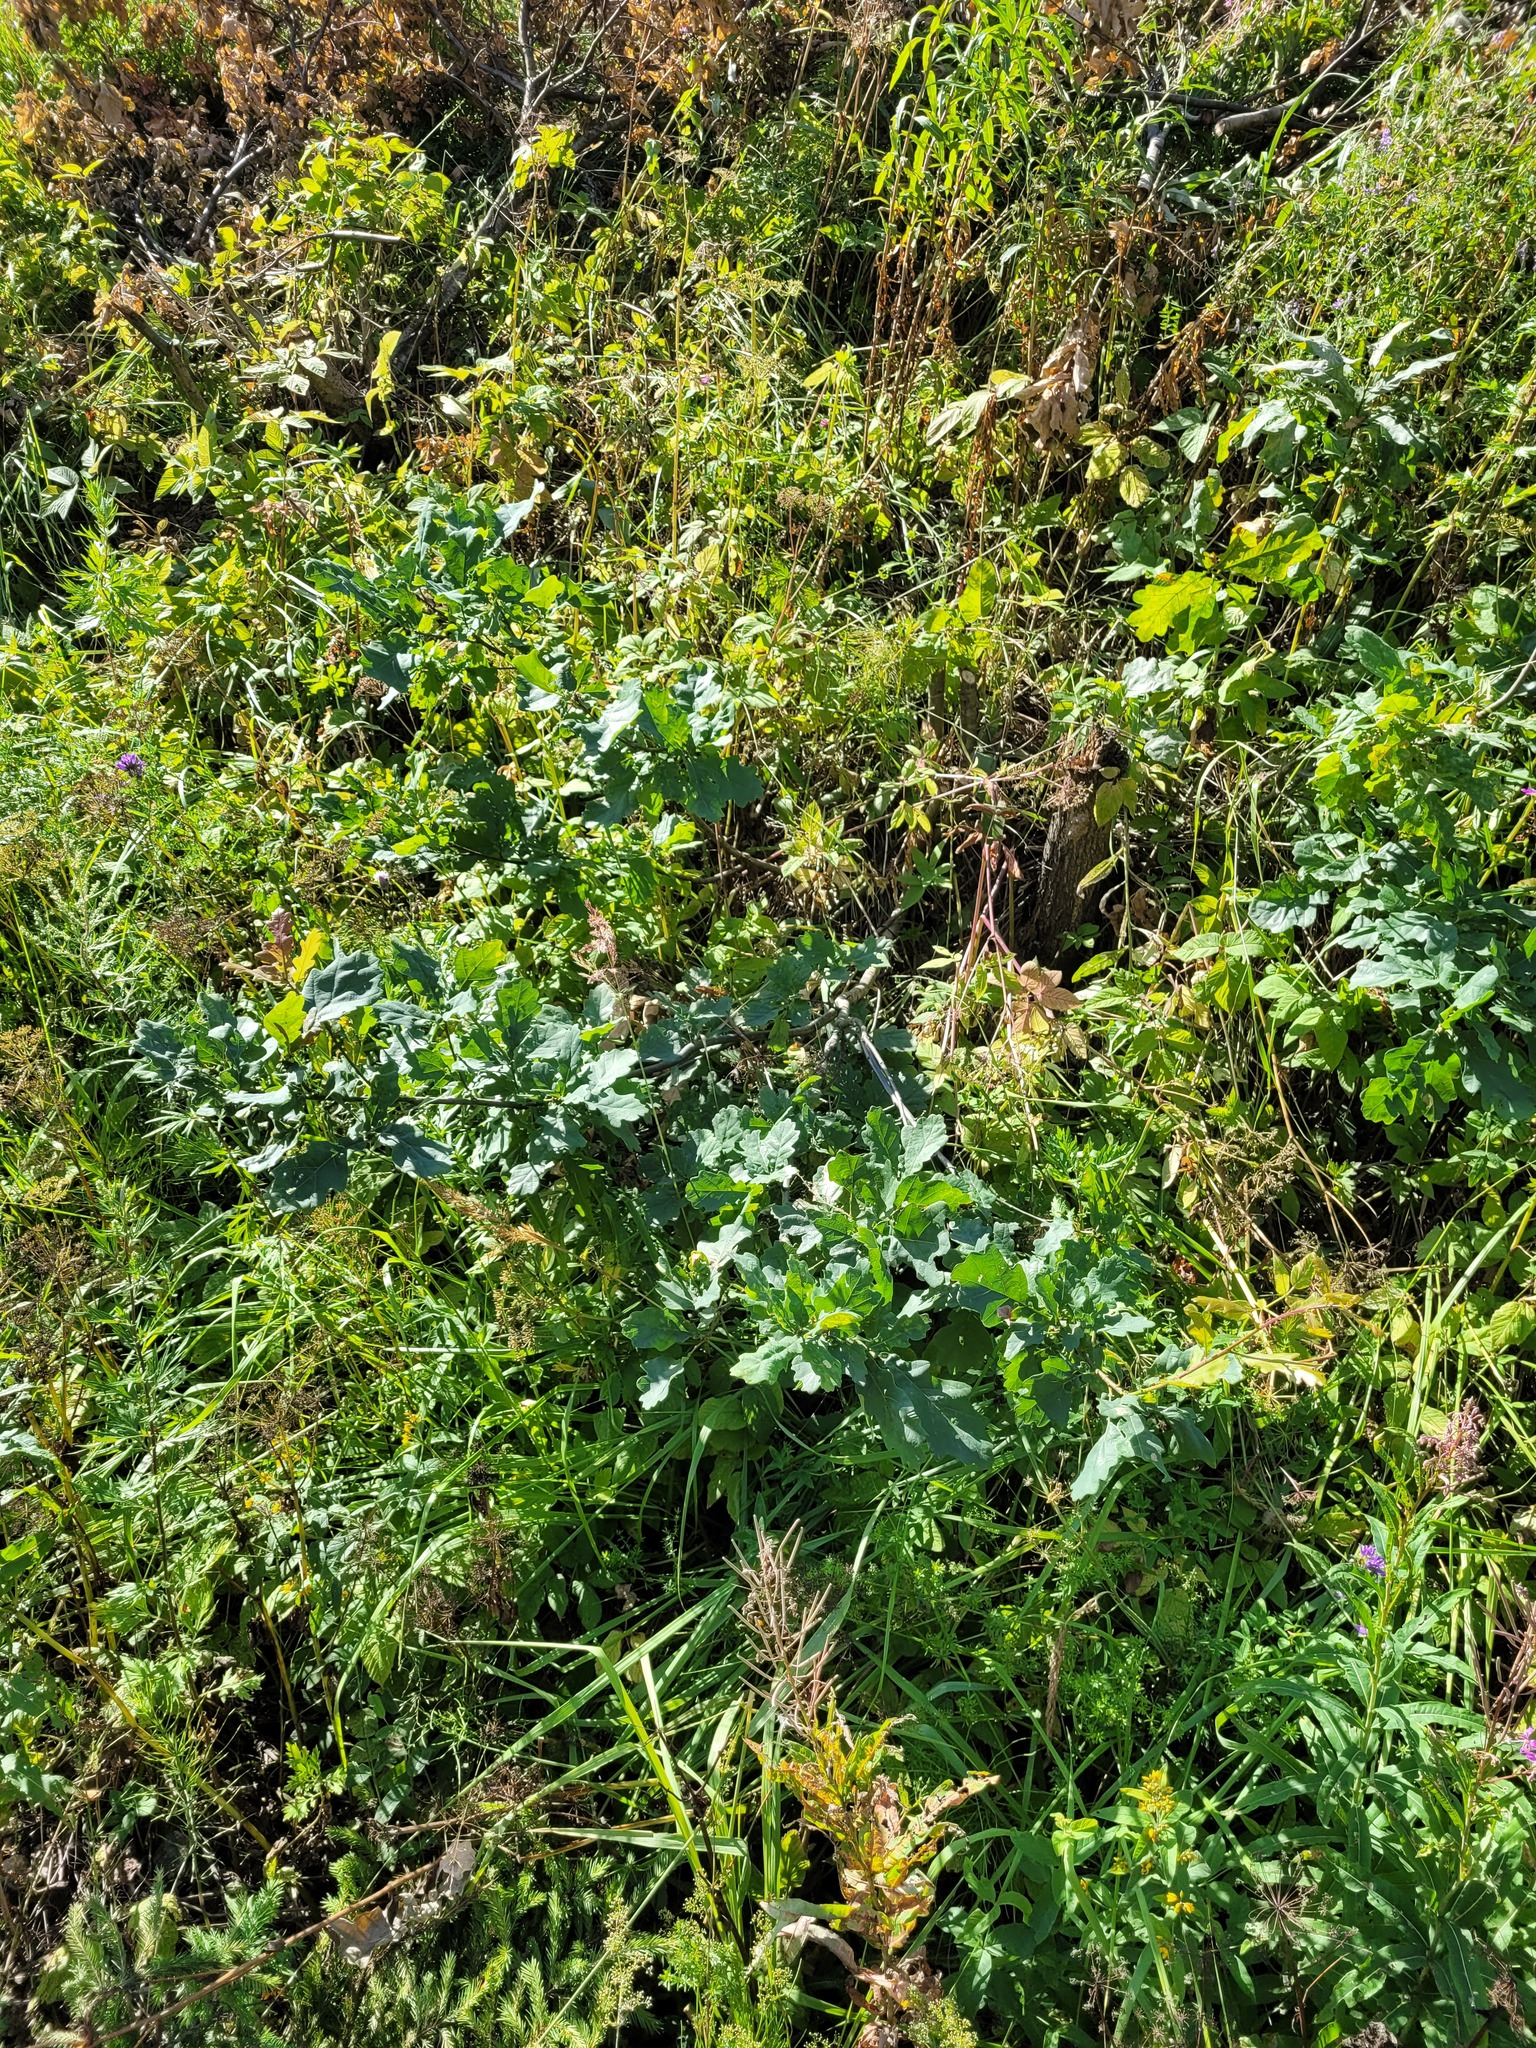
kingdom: Plantae
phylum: Tracheophyta
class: Magnoliopsida
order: Fagales
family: Fagaceae
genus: Quercus
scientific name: Quercus robur
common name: Pedunculate oak
